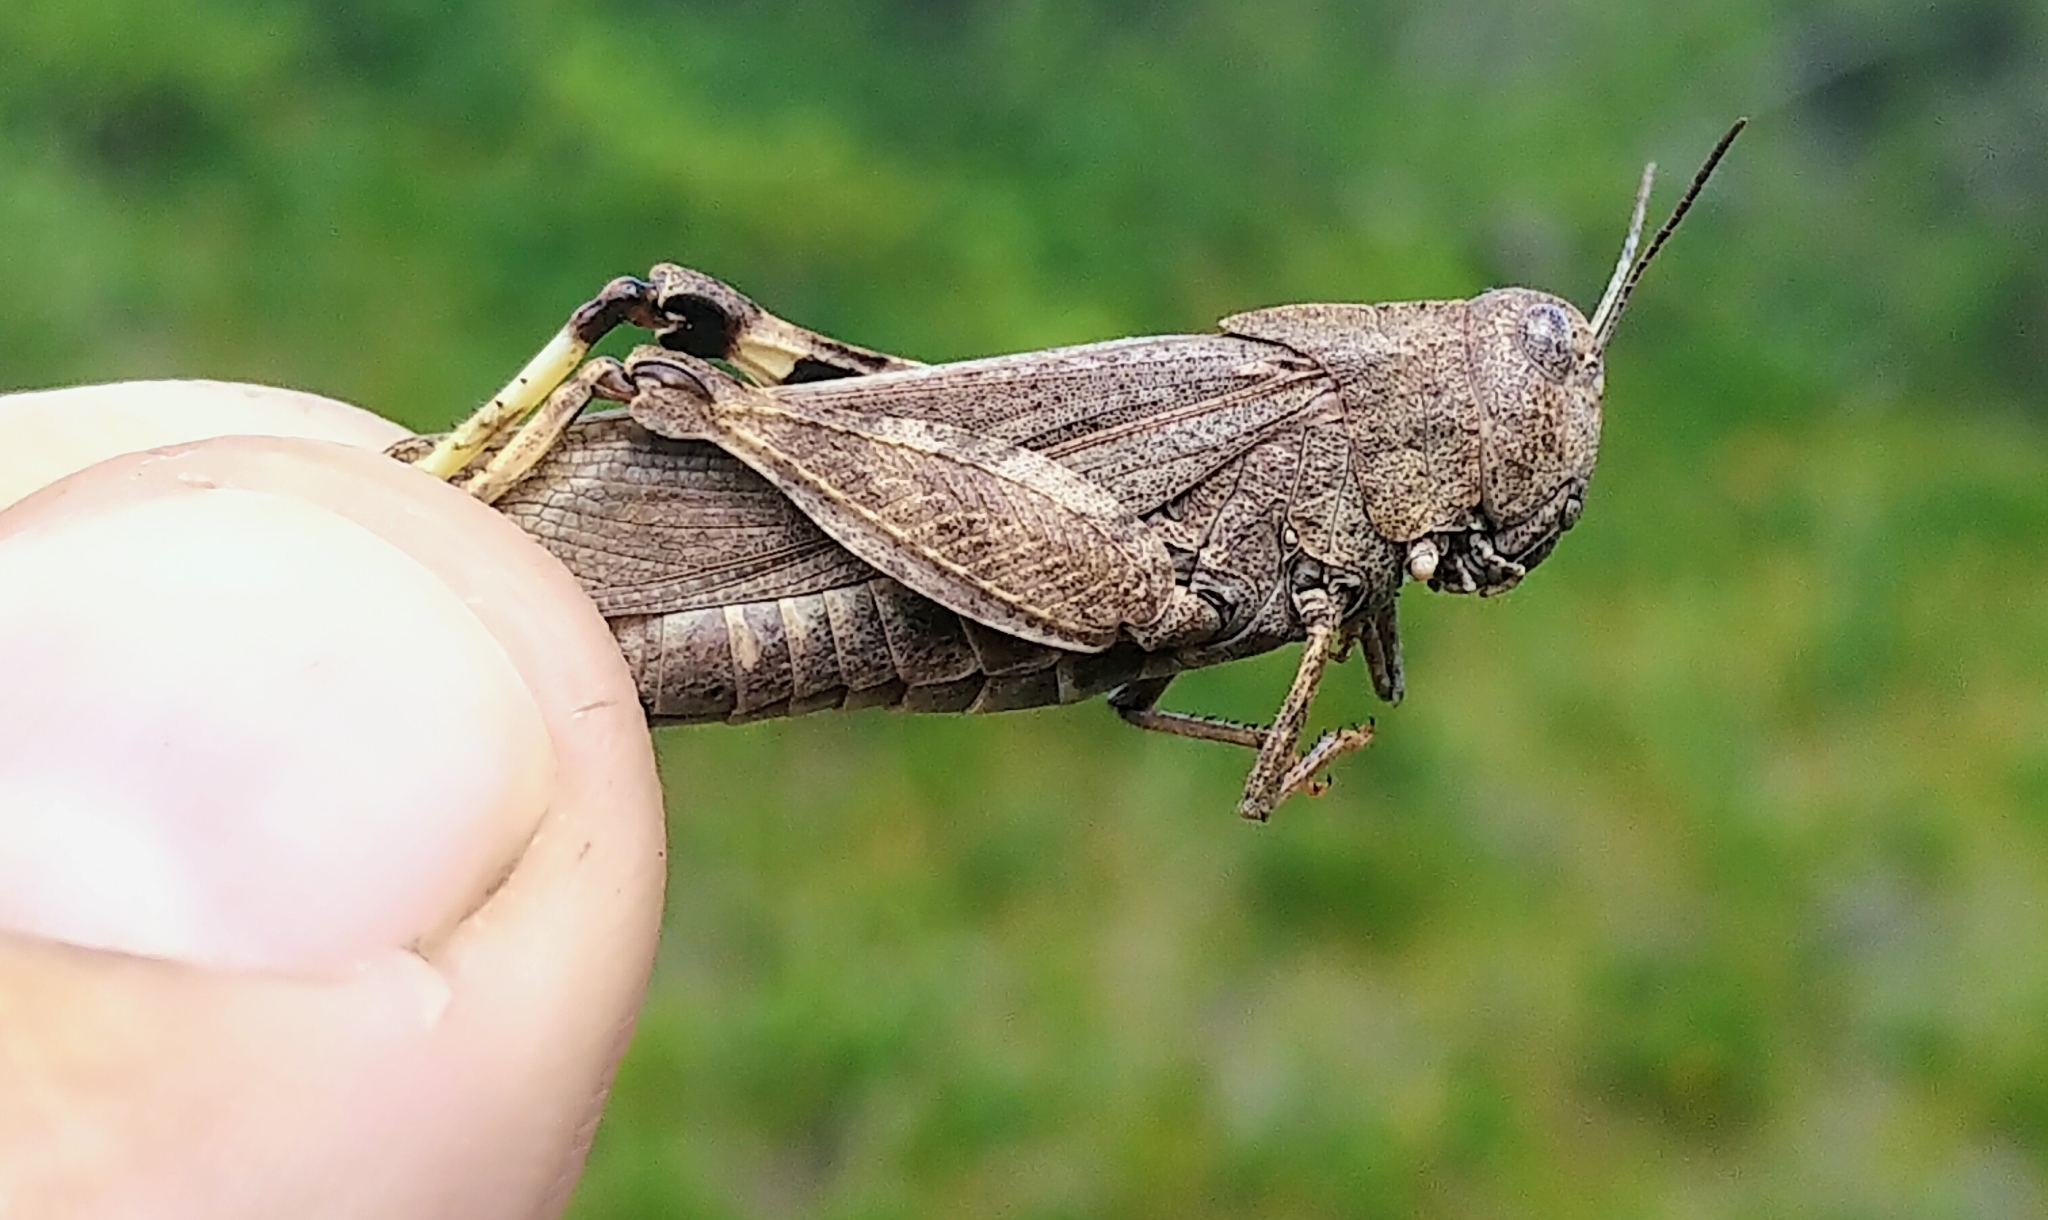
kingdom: Animalia
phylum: Arthropoda
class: Insecta
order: Orthoptera
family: Acrididae
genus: Arphia
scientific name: Arphia conspersa
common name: Speckle-winged rangeland grasshopper
